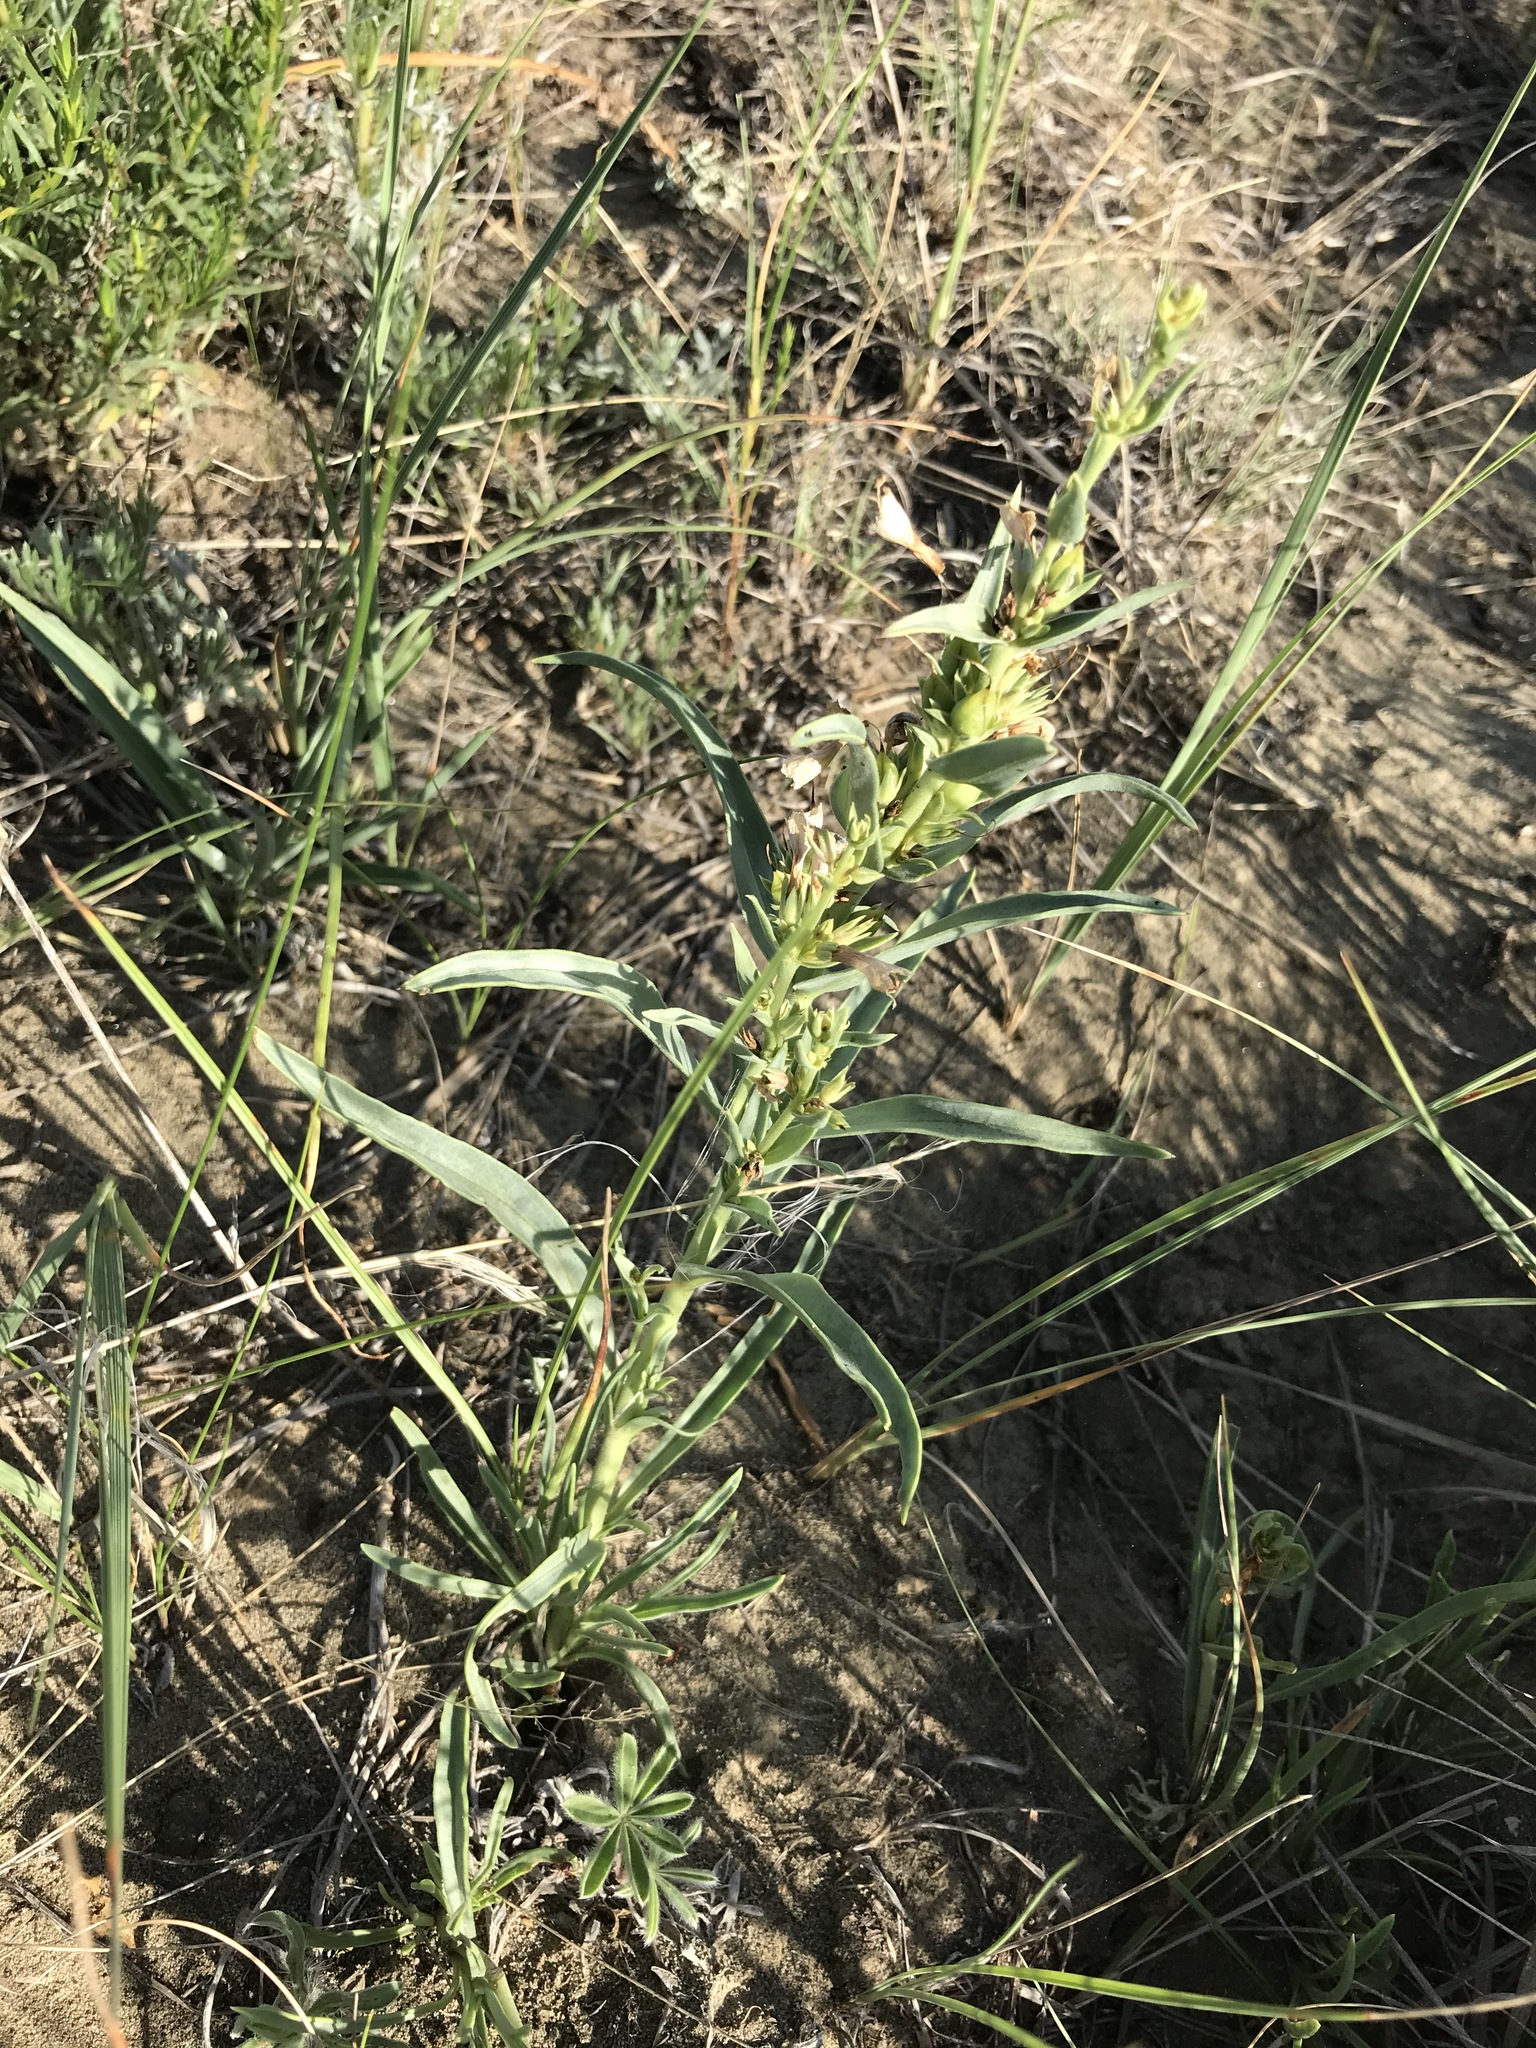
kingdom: Plantae
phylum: Tracheophyta
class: Magnoliopsida
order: Lamiales
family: Plantaginaceae
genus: Penstemon
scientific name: Penstemon angustifolius
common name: Narrow beardtongue
